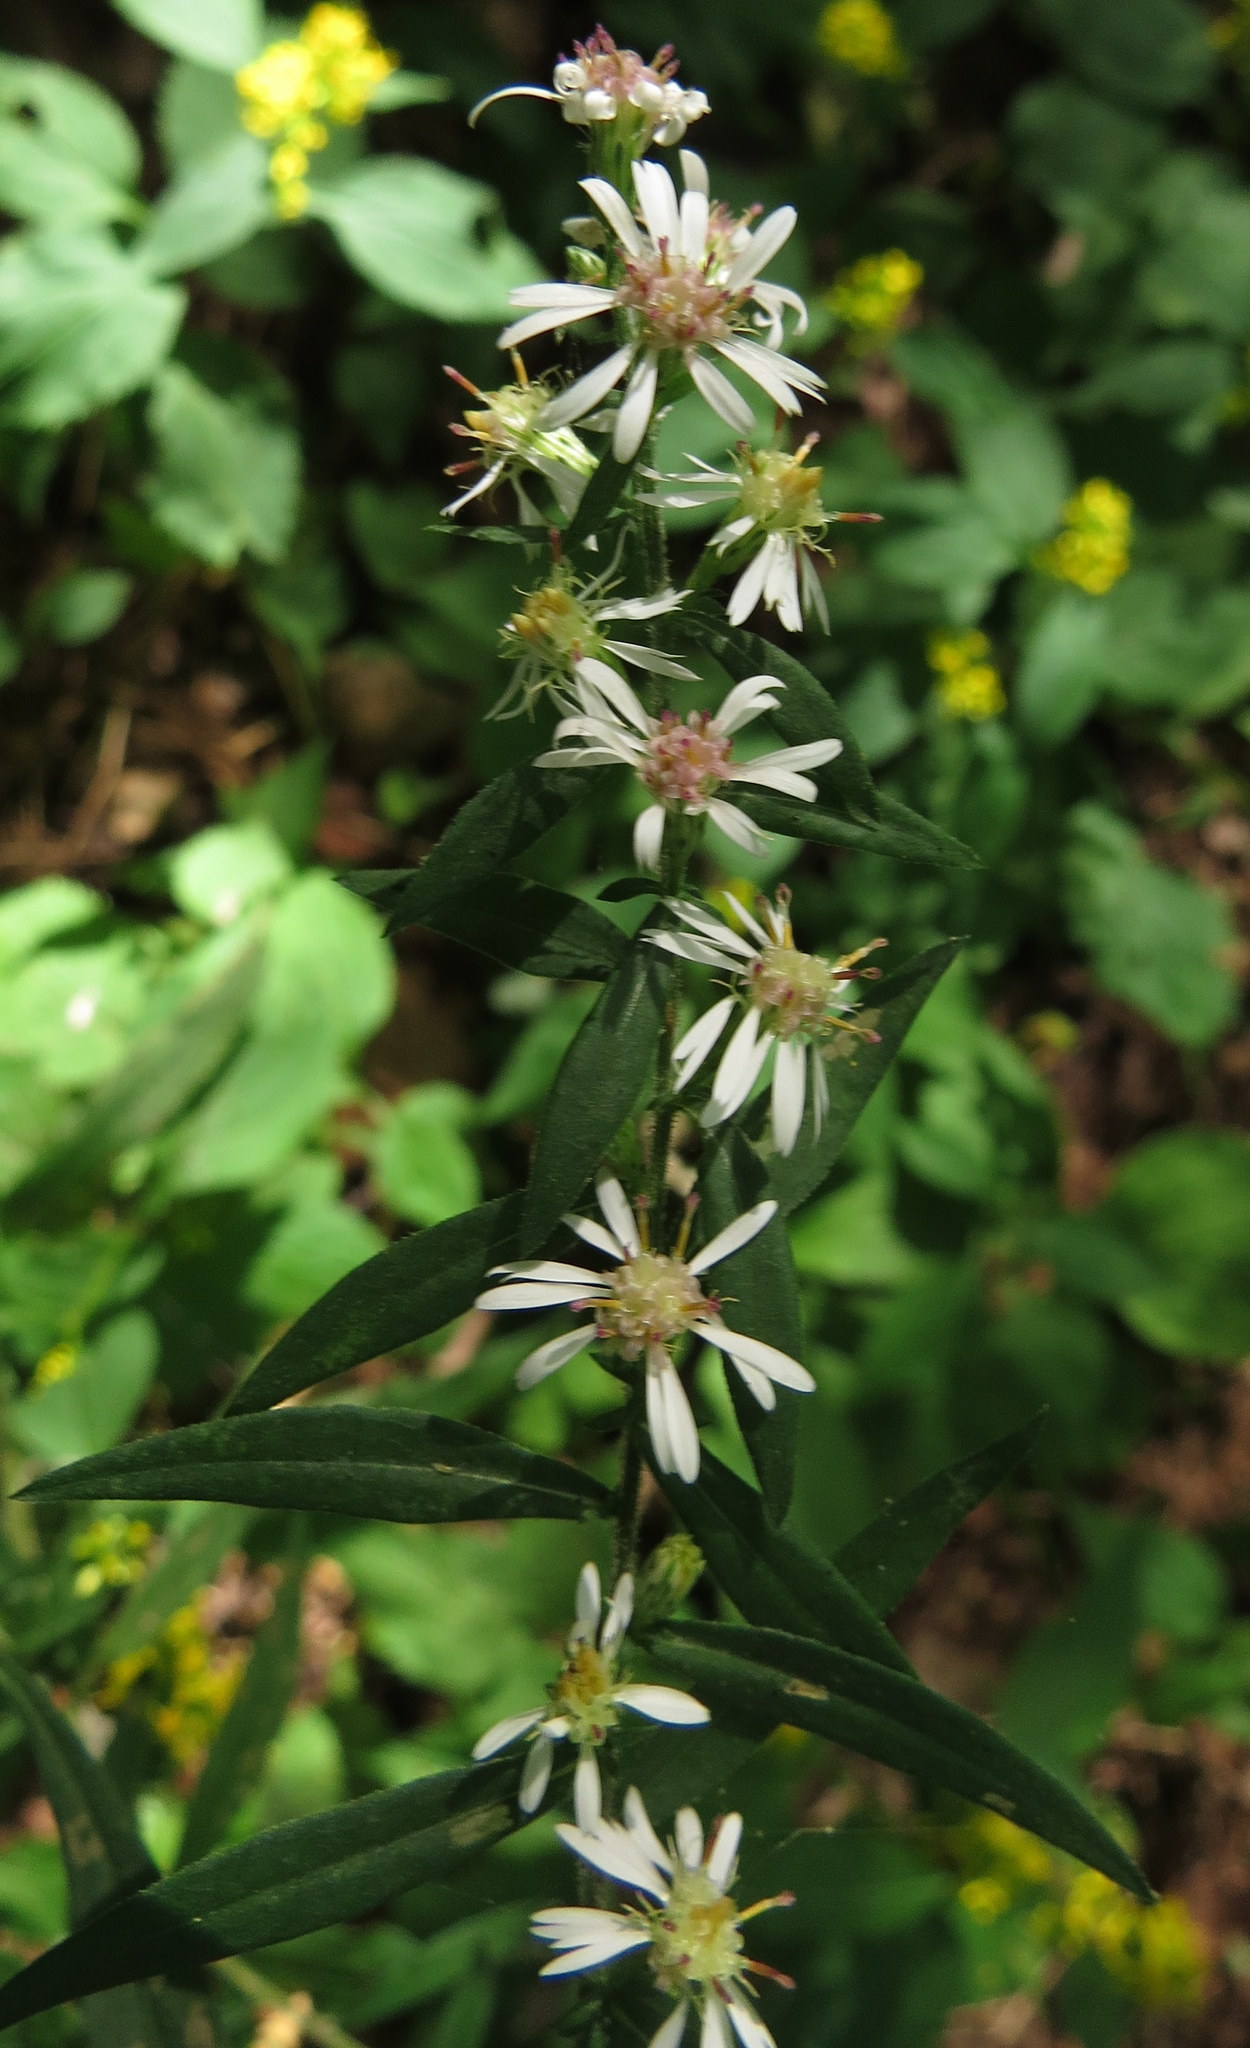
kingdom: Plantae
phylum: Tracheophyta
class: Magnoliopsida
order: Asterales
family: Asteraceae
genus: Symphyotrichum
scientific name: Symphyotrichum lateriflorum
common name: Calico aster
